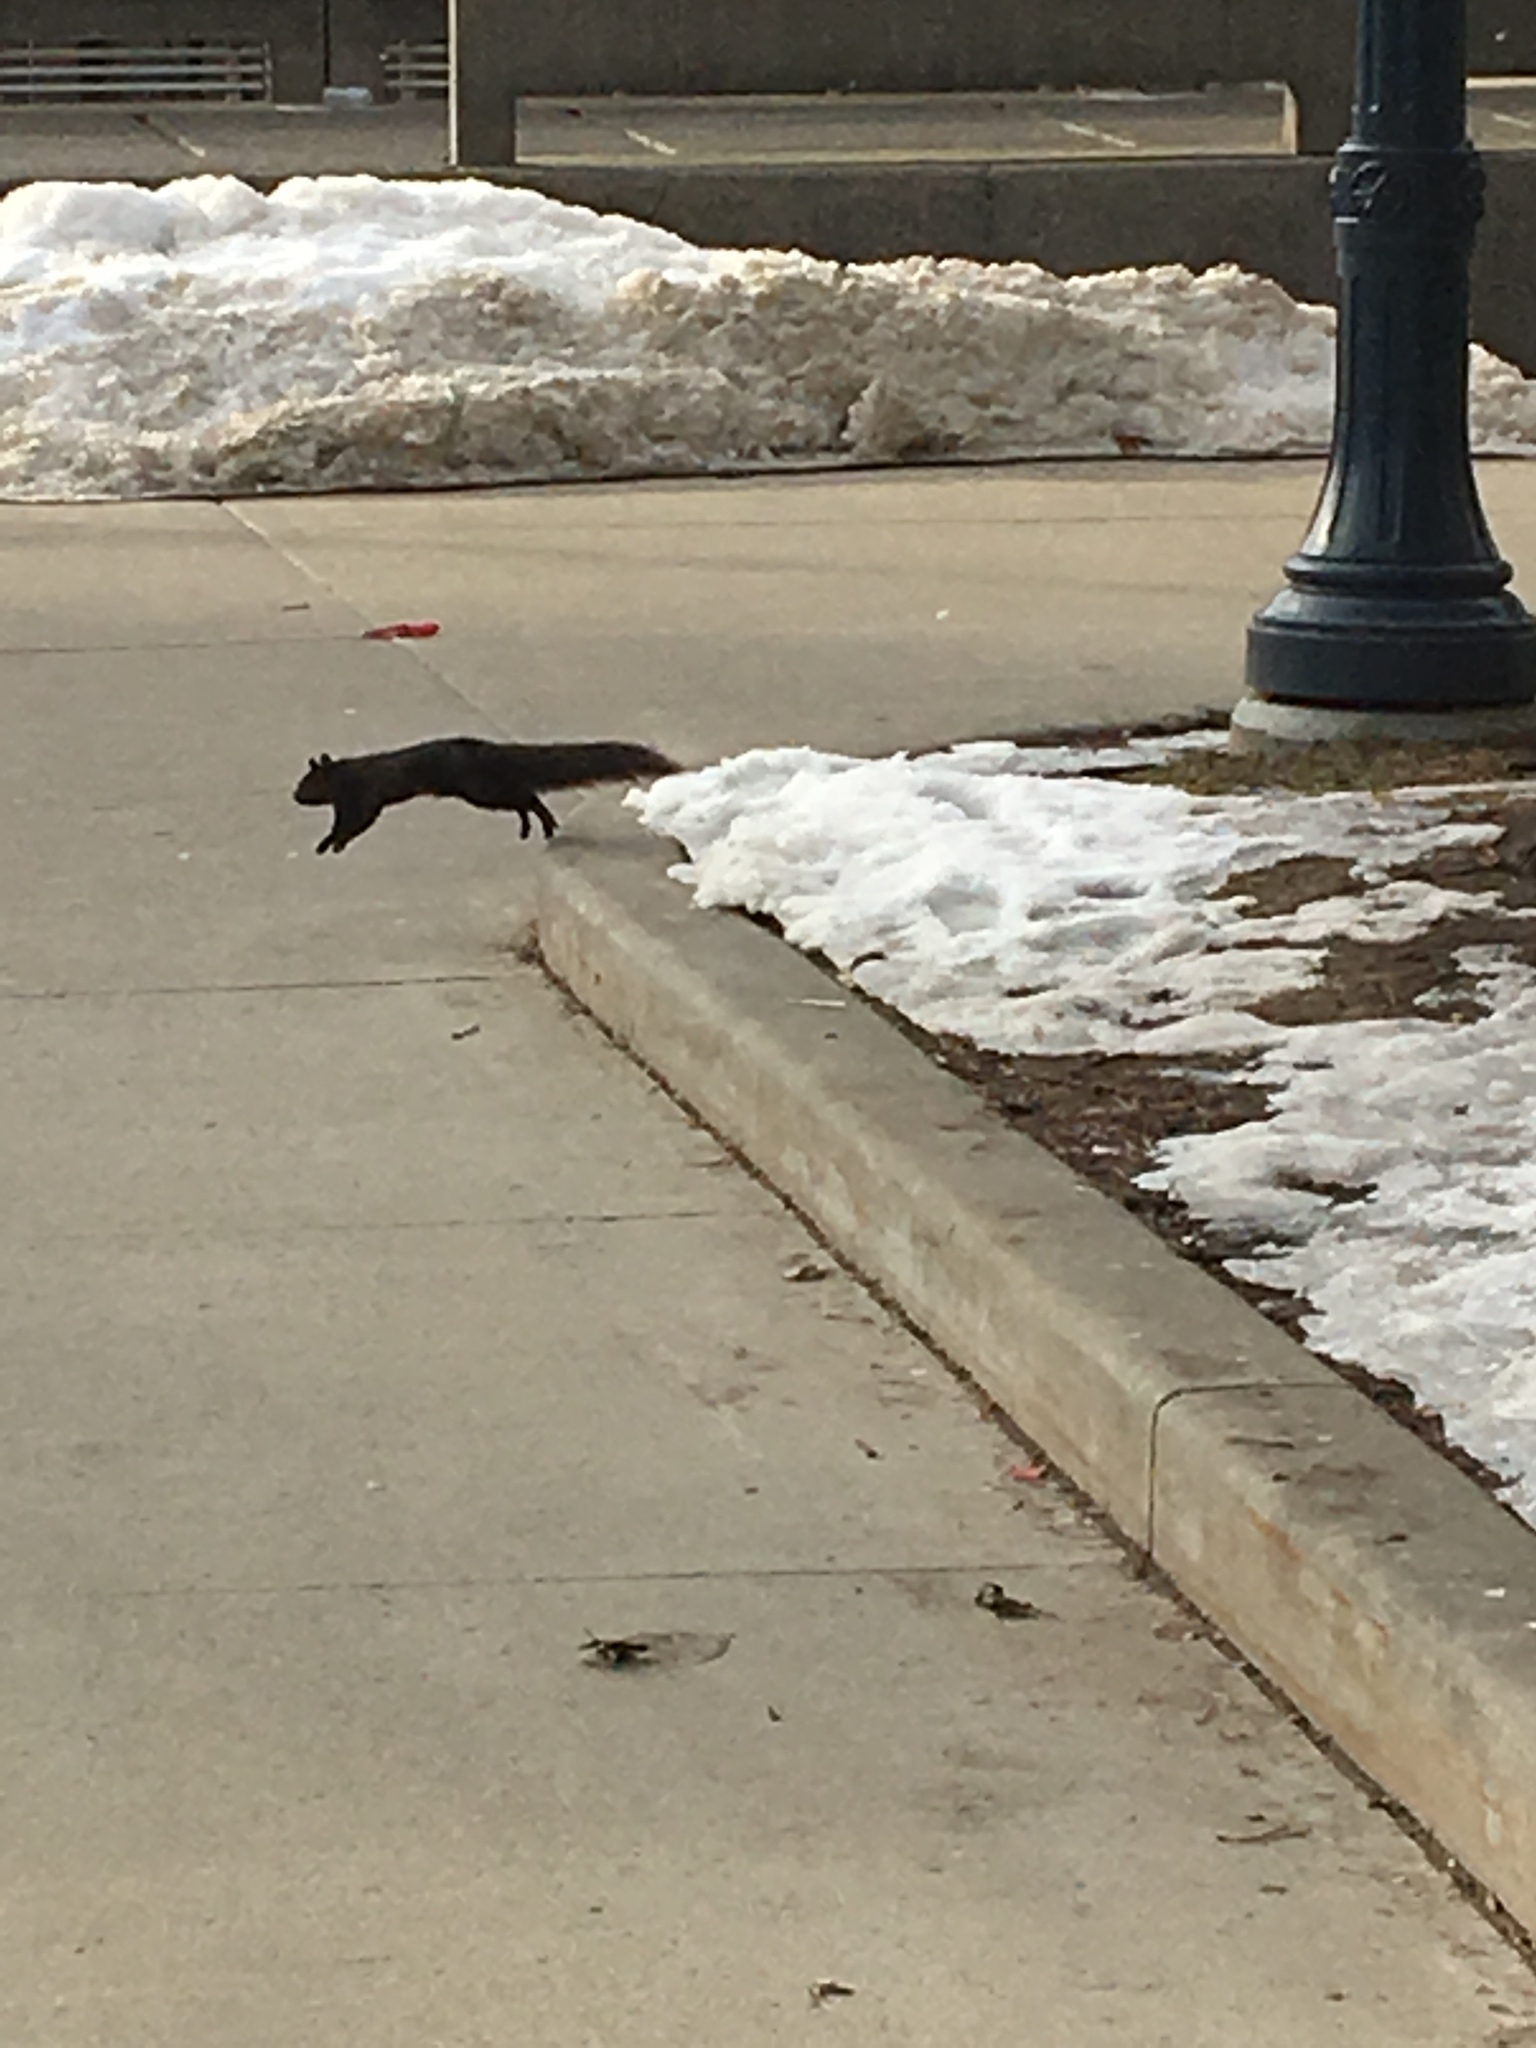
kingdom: Animalia
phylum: Chordata
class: Mammalia
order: Rodentia
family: Sciuridae
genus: Sciurus
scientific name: Sciurus carolinensis
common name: Eastern gray squirrel
